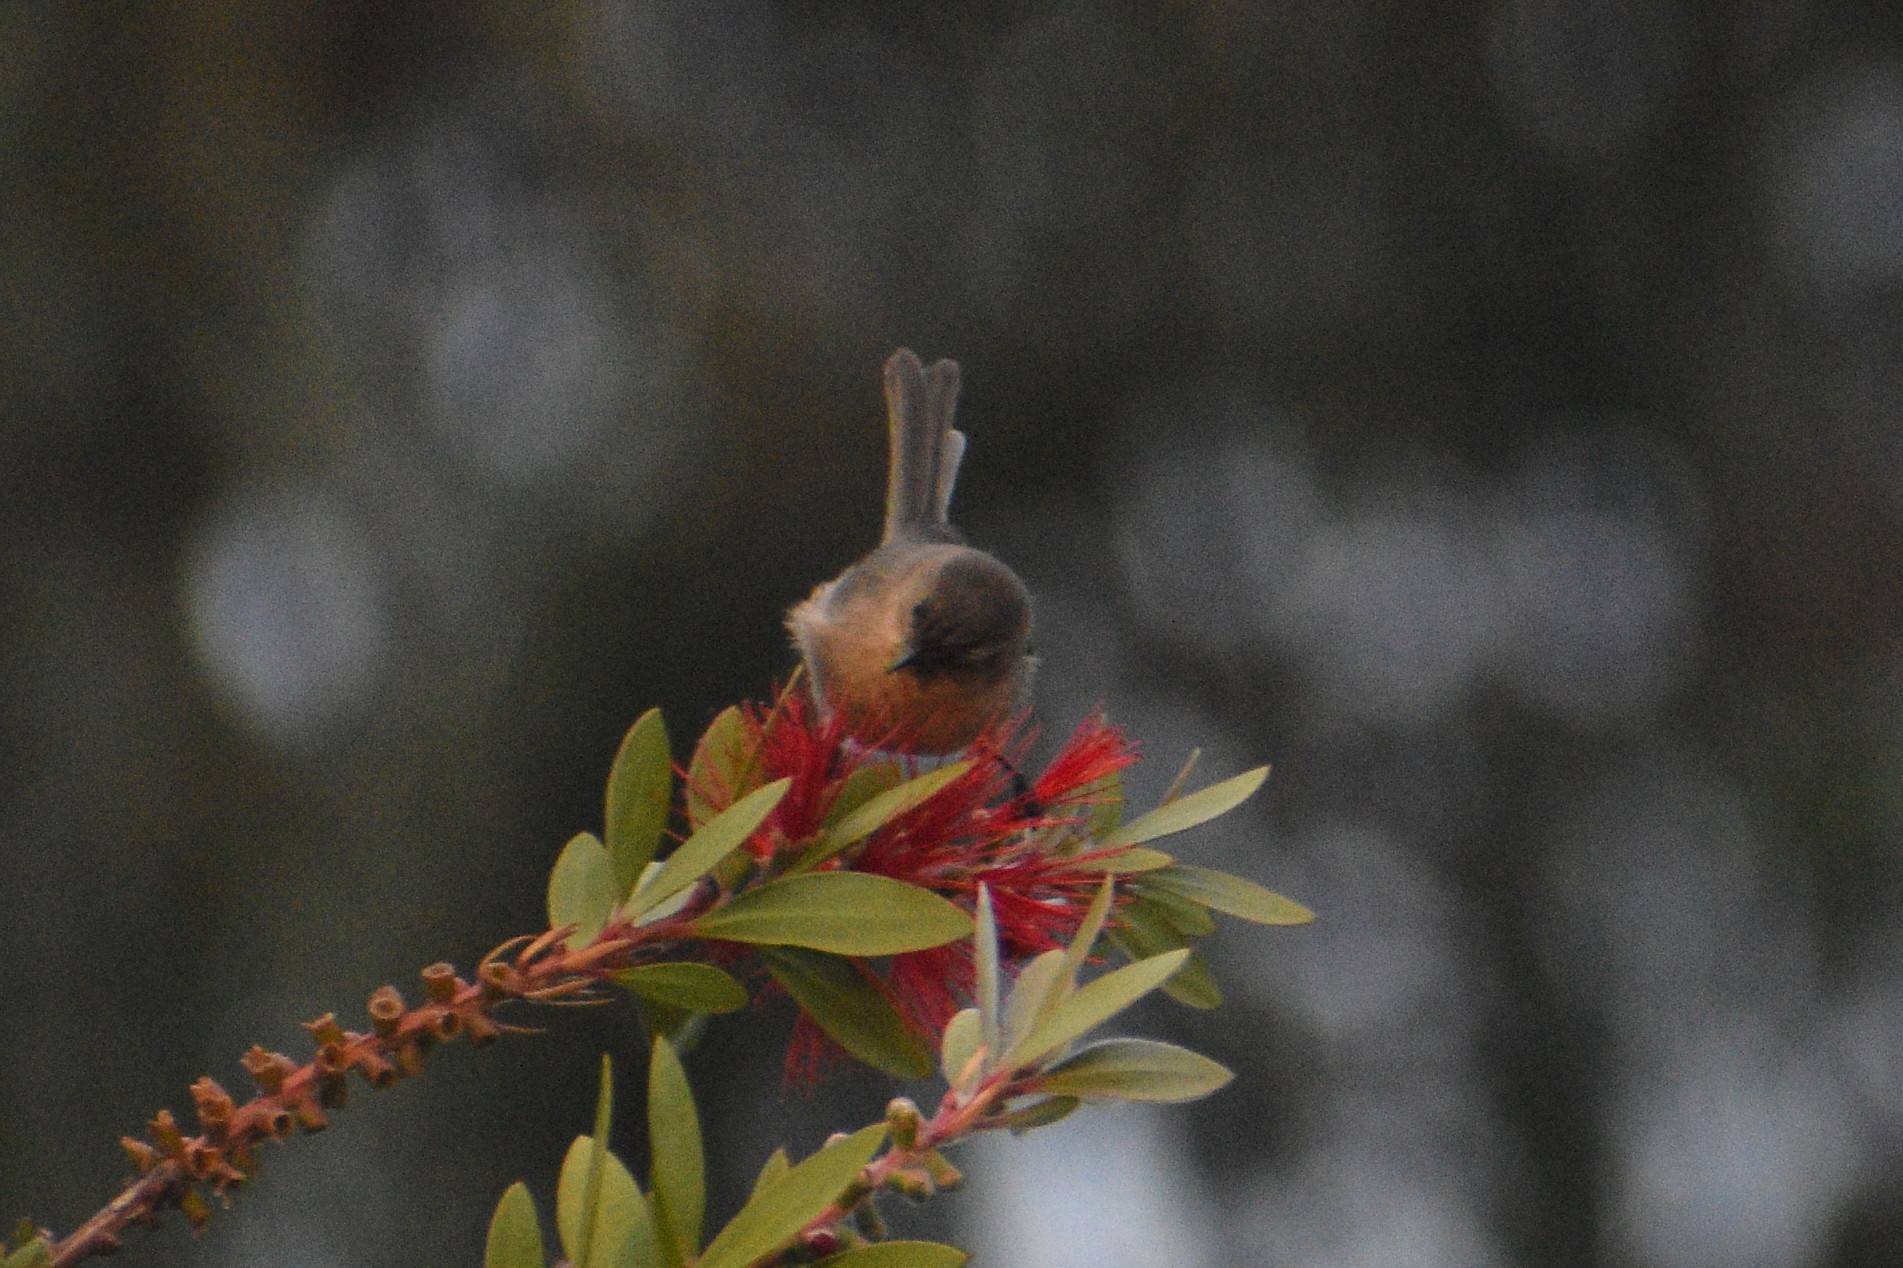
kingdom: Animalia
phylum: Chordata
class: Aves
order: Passeriformes
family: Aegithalidae
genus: Psaltriparus
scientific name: Psaltriparus minimus
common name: American bushtit
